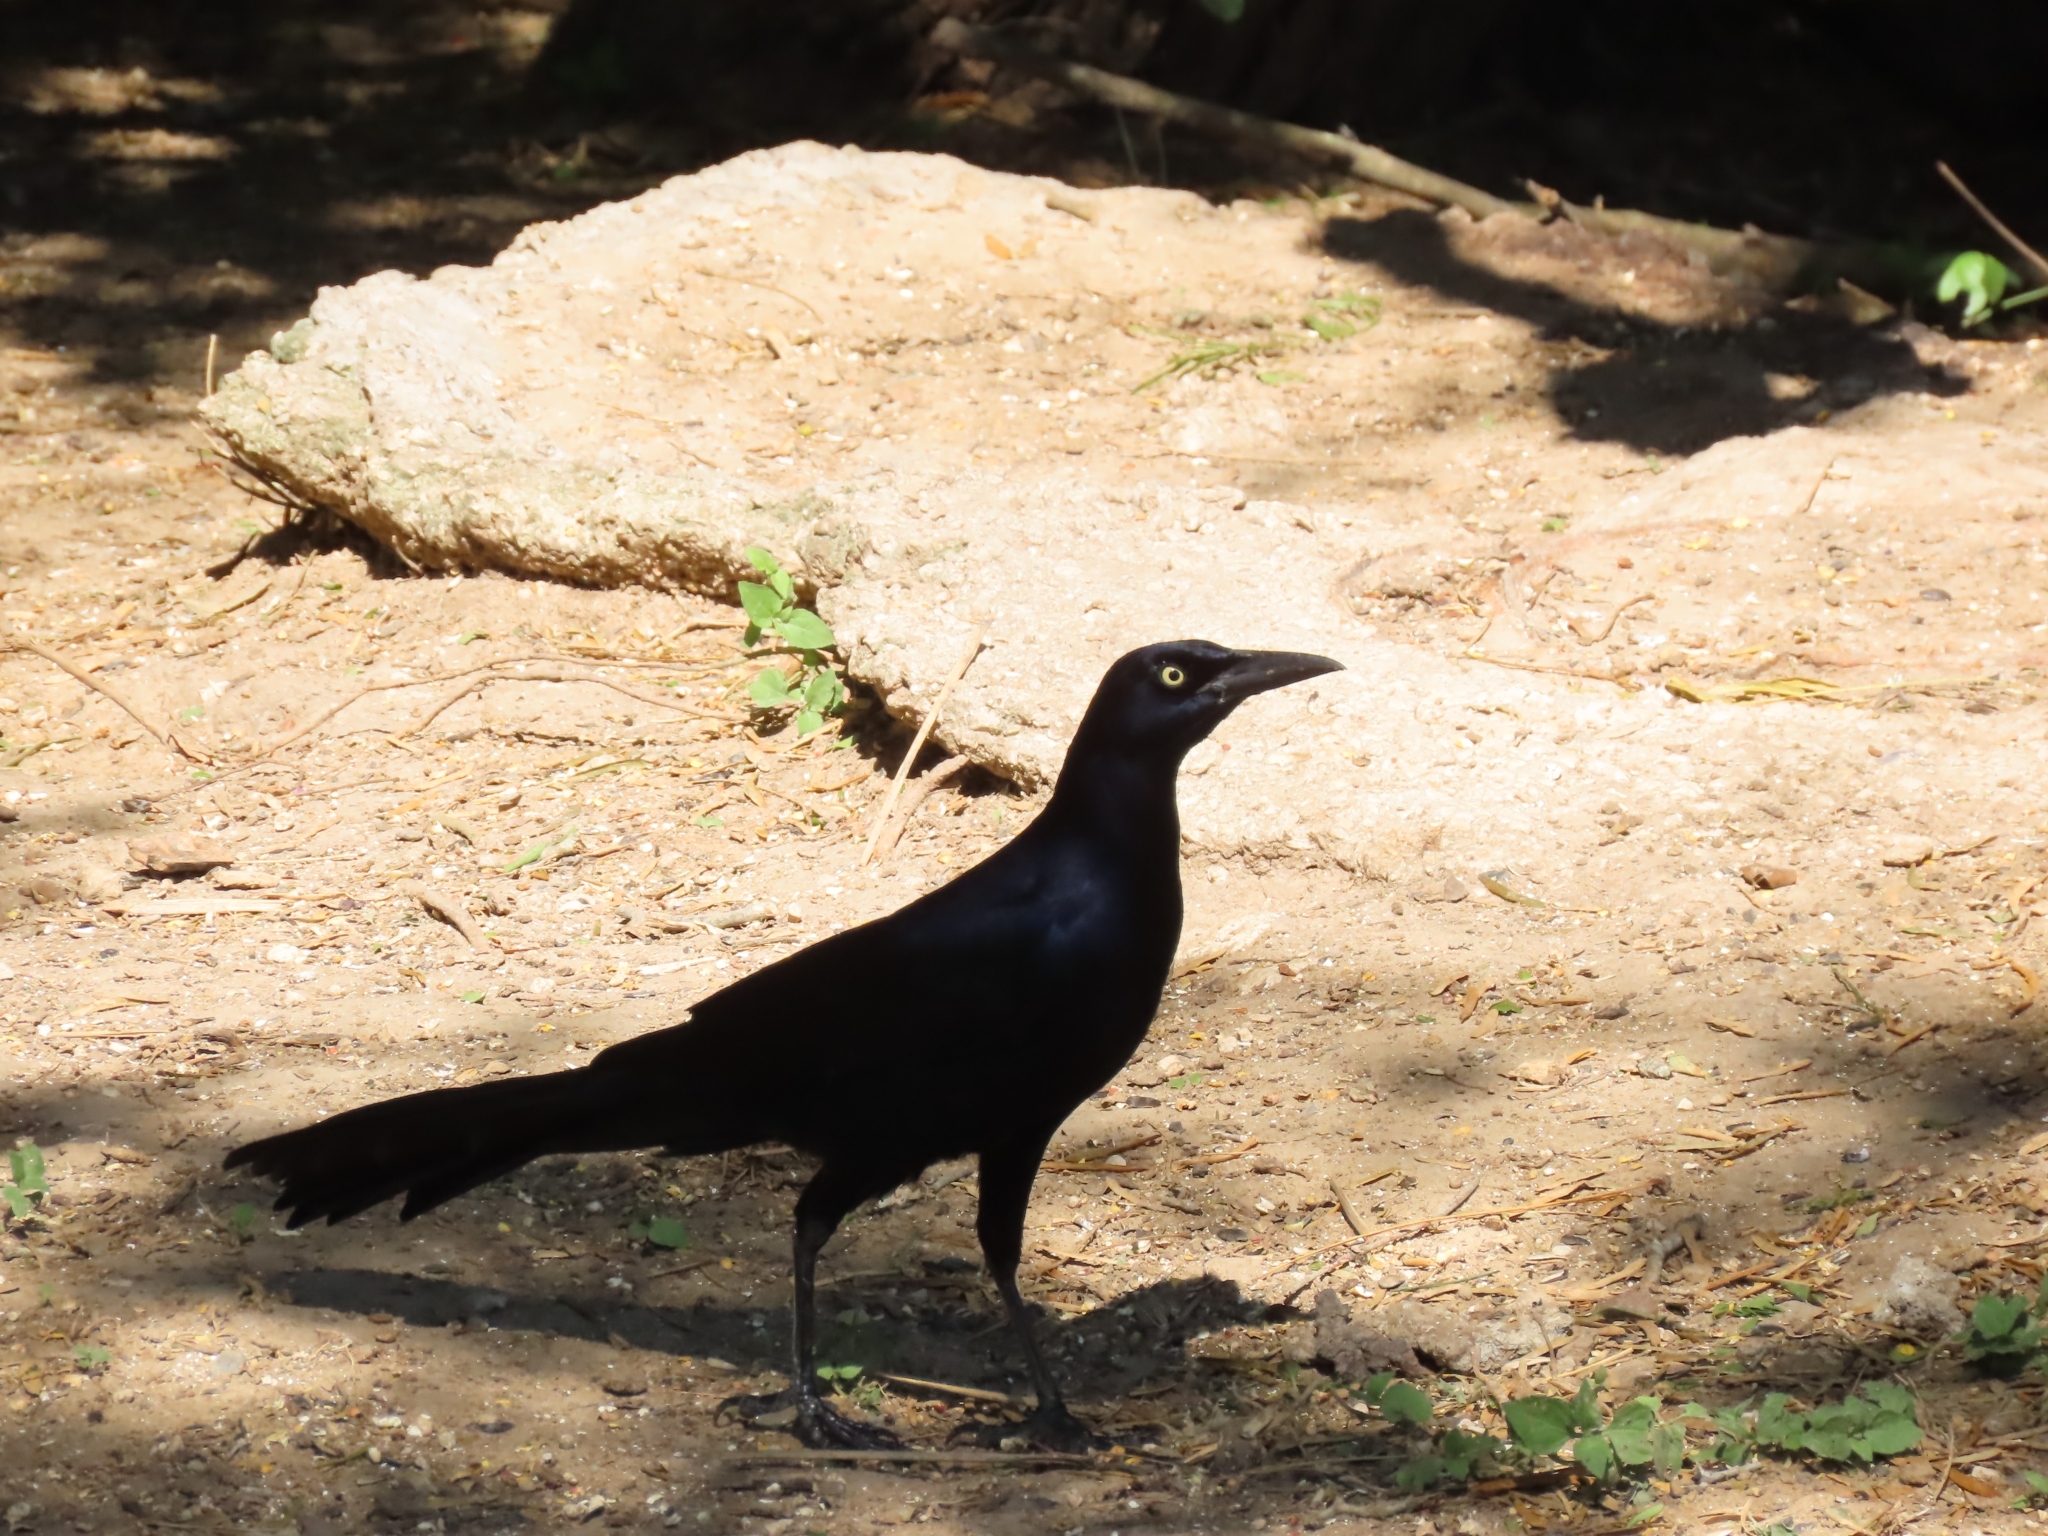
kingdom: Animalia
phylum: Chordata
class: Aves
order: Passeriformes
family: Icteridae
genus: Quiscalus
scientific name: Quiscalus mexicanus
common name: Great-tailed grackle
